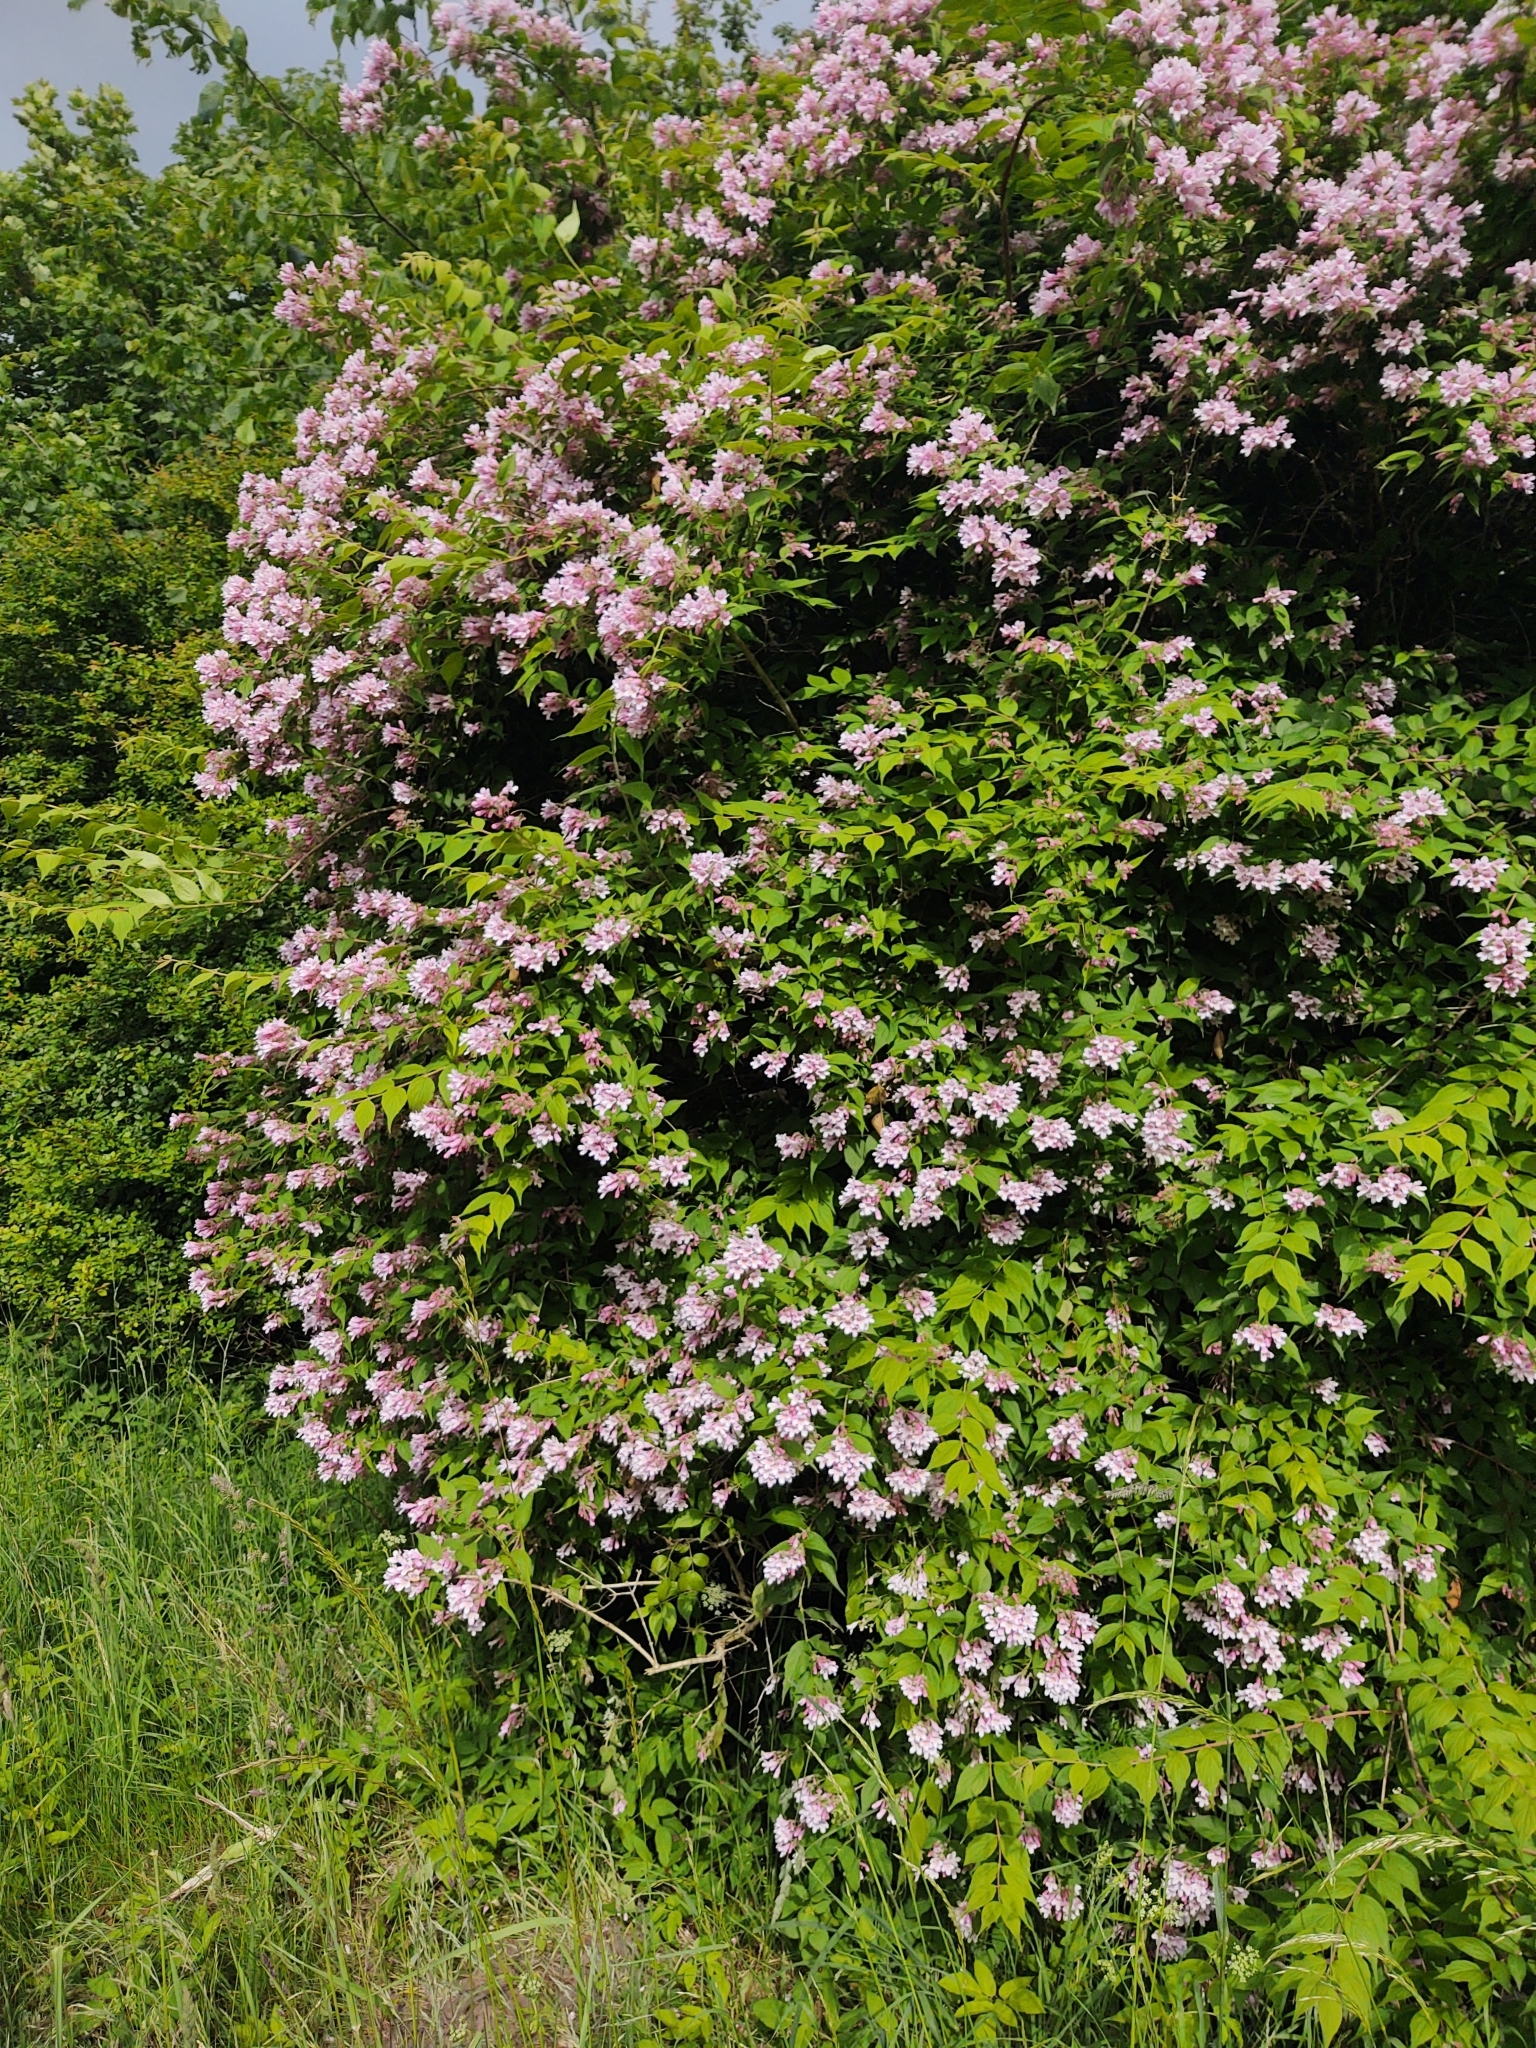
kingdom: Plantae
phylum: Tracheophyta
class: Magnoliopsida
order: Dipsacales
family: Caprifoliaceae
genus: Kolkwitzia
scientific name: Kolkwitzia amabilis
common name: Beautybush
